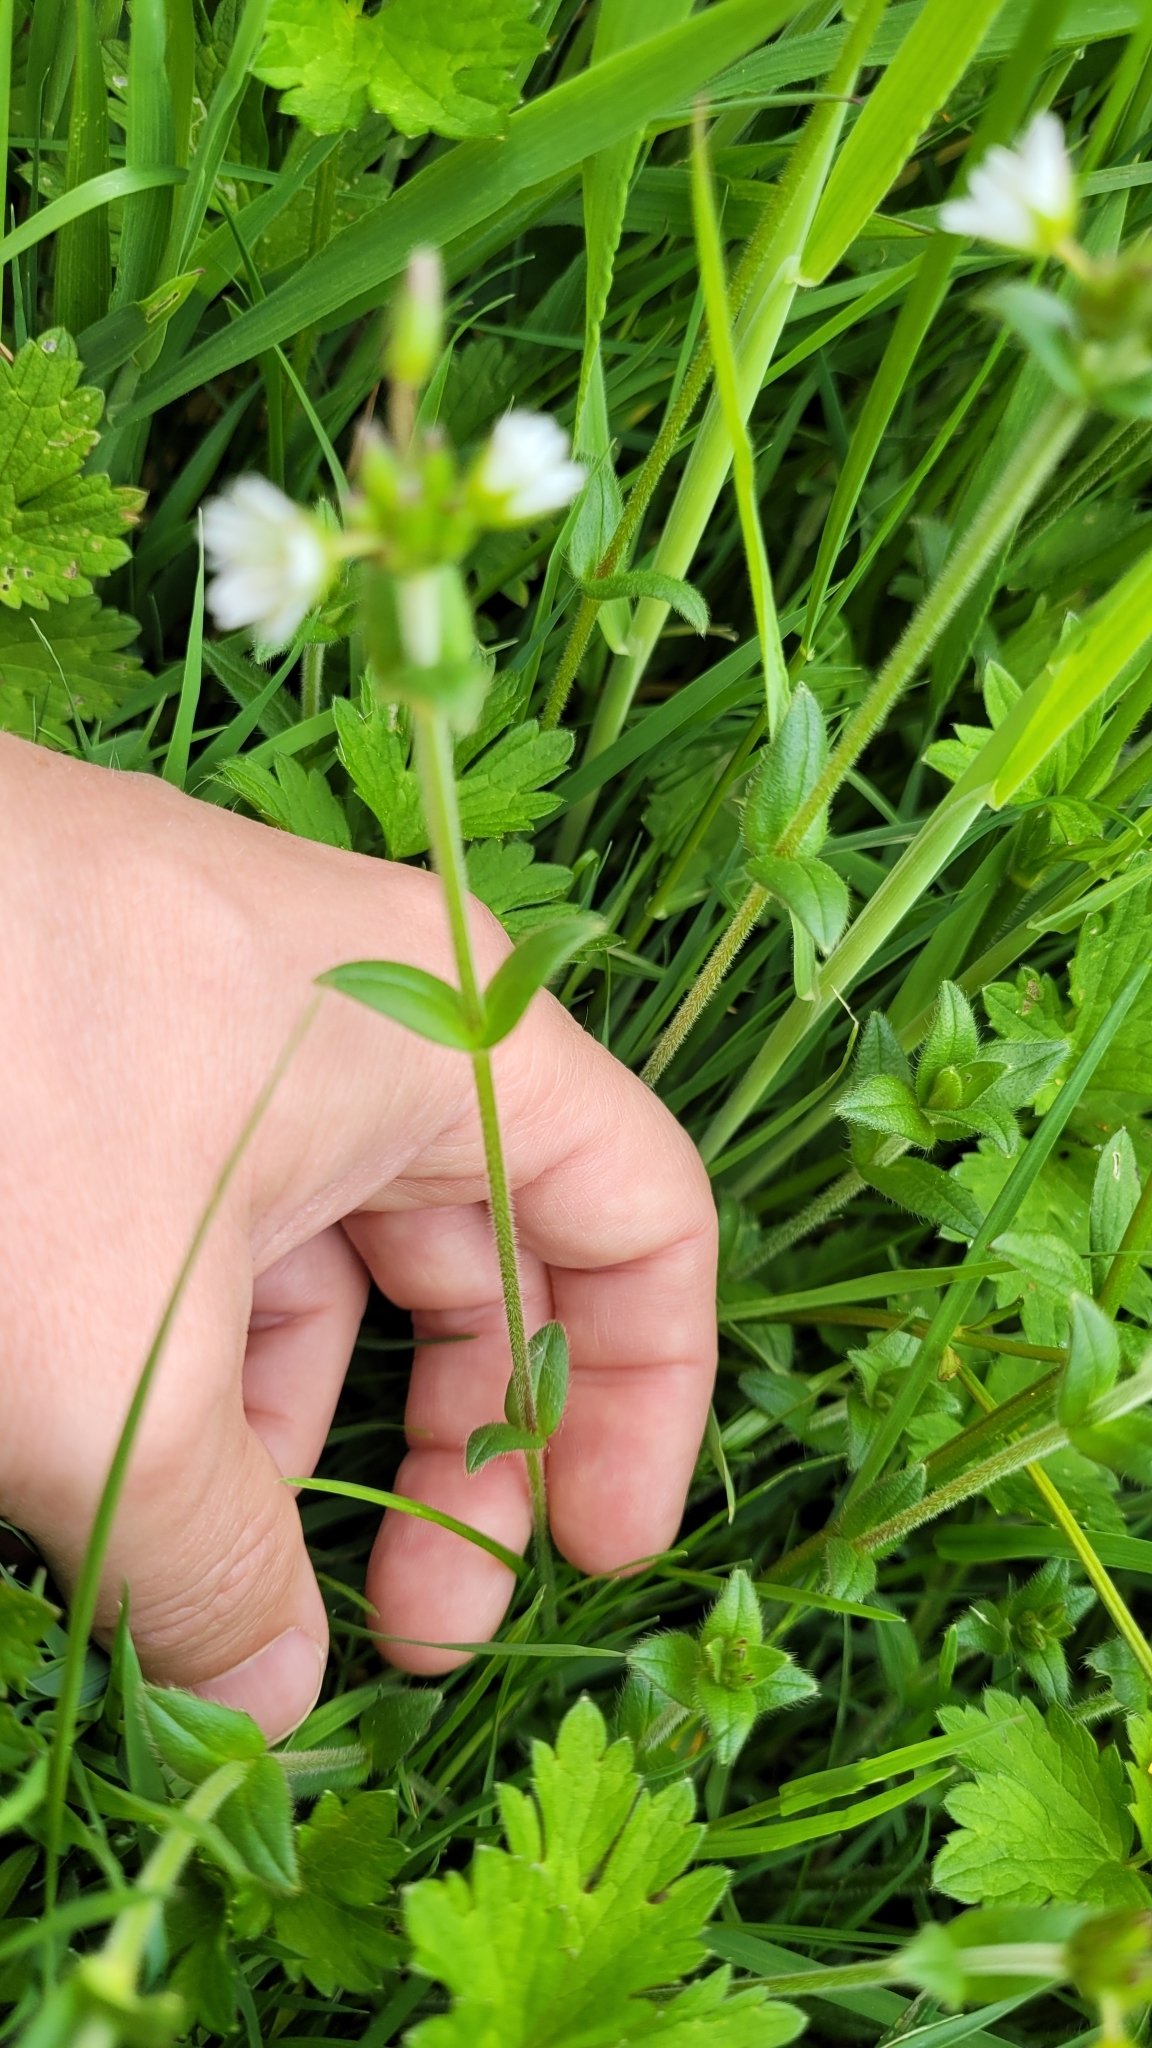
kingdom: Plantae
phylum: Tracheophyta
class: Magnoliopsida
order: Caryophyllales
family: Caryophyllaceae
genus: Cerastium
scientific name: Cerastium fontanum
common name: Common mouse-ear
